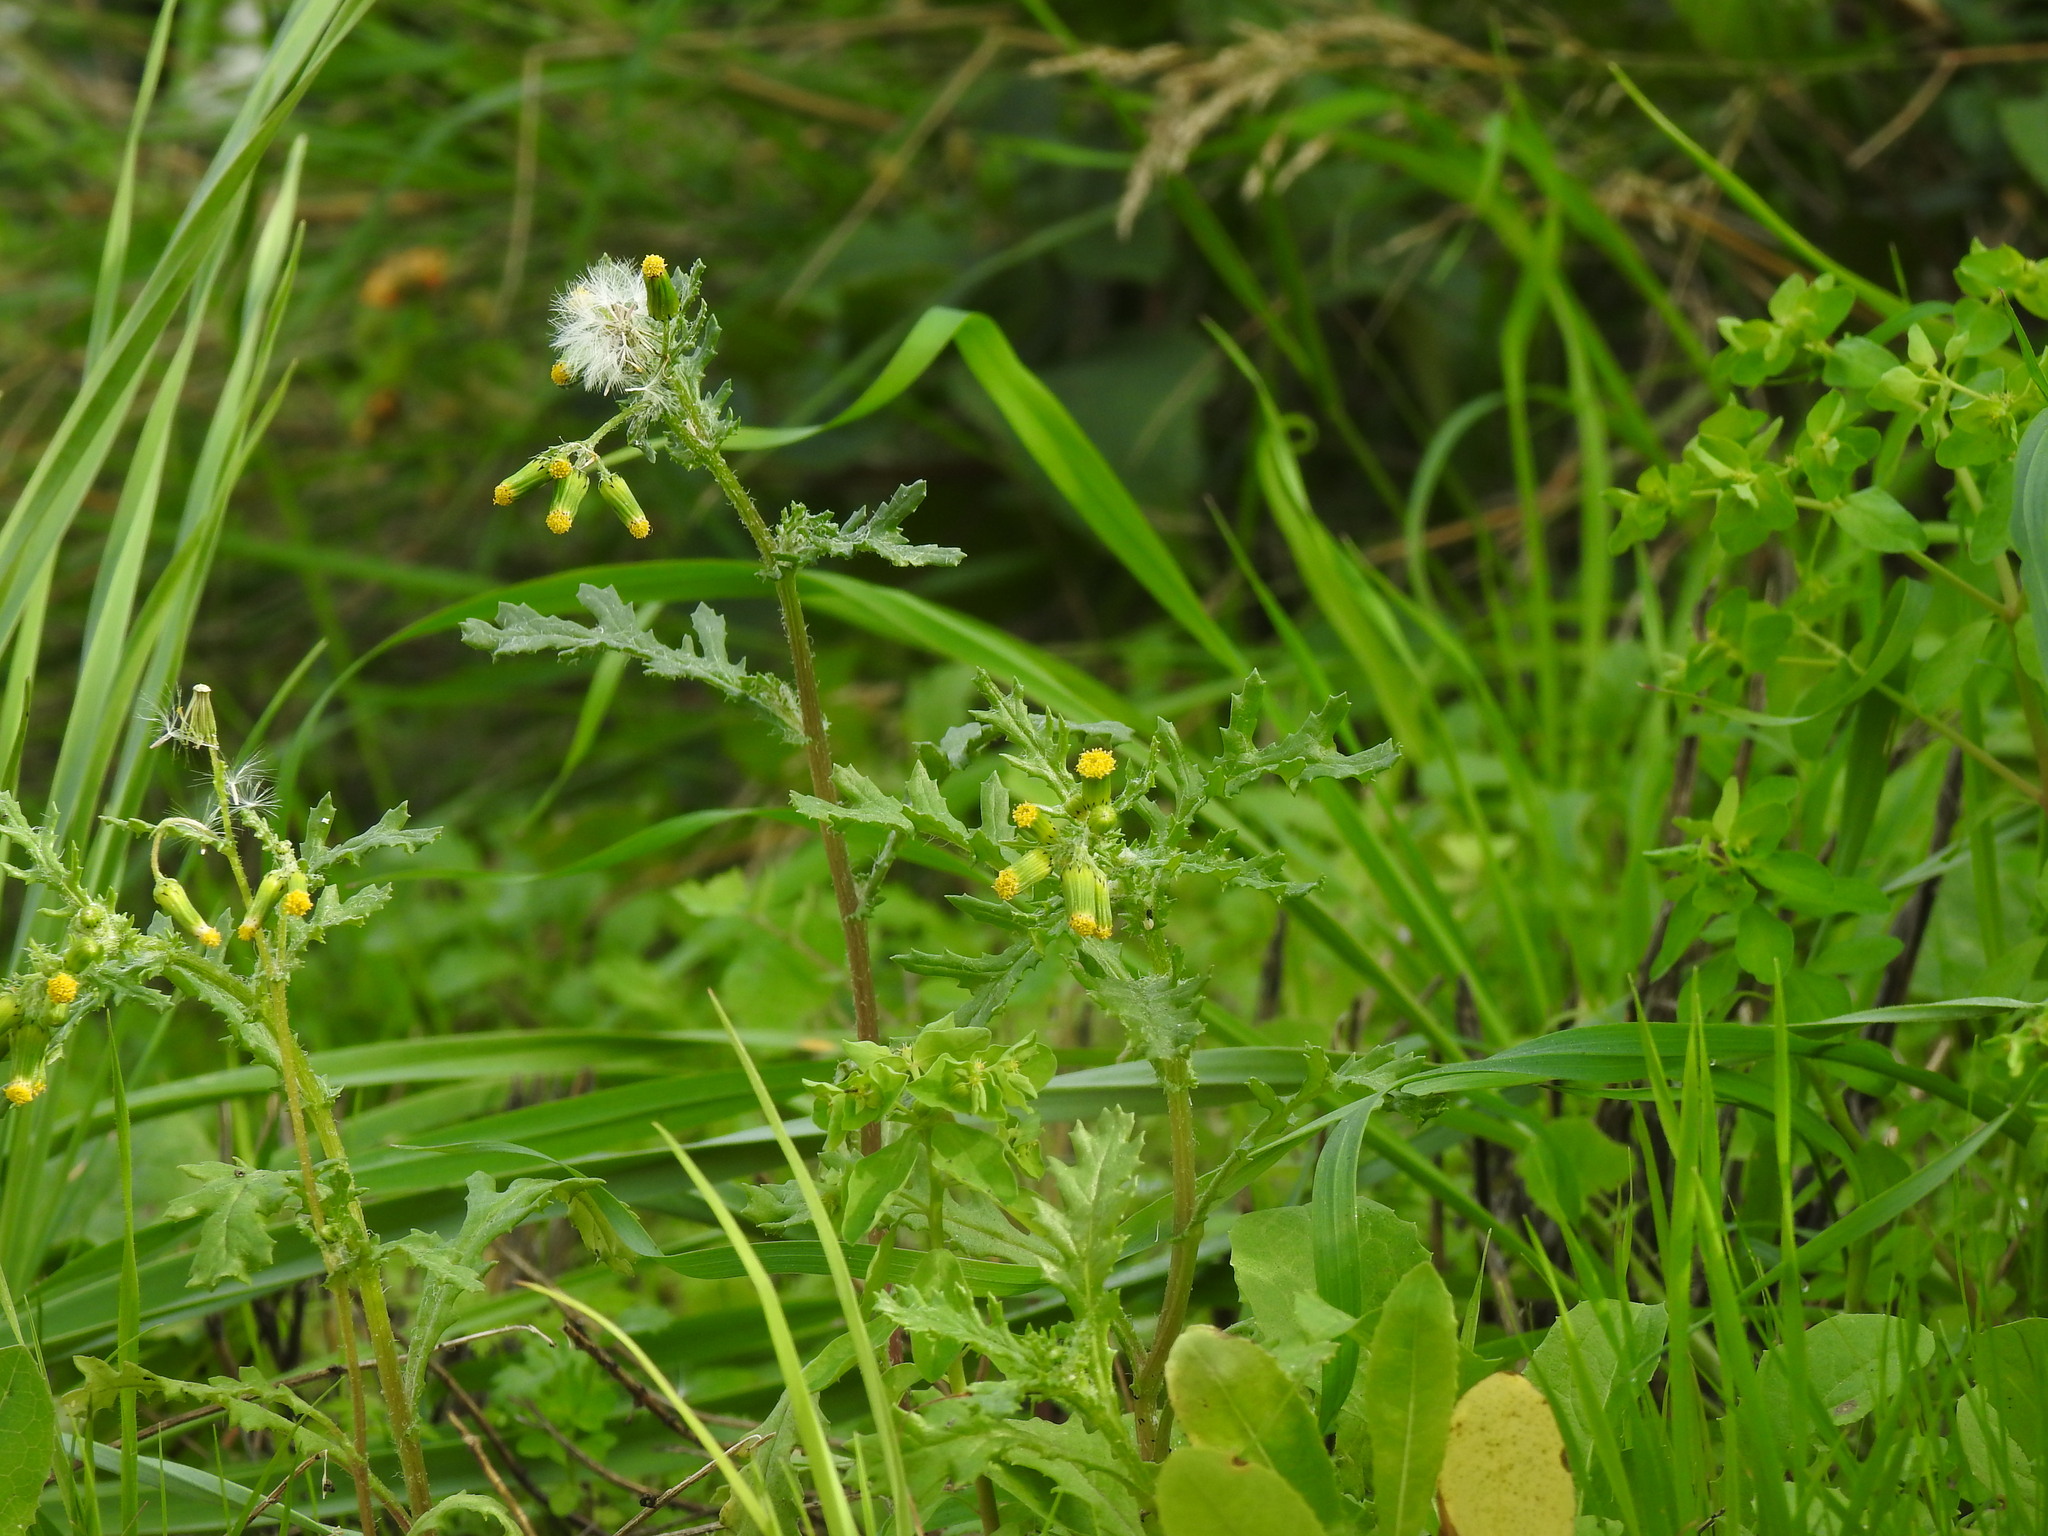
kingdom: Plantae
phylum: Tracheophyta
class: Magnoliopsida
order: Asterales
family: Asteraceae
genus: Senecio
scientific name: Senecio vulgaris
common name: Old-man-in-the-spring
